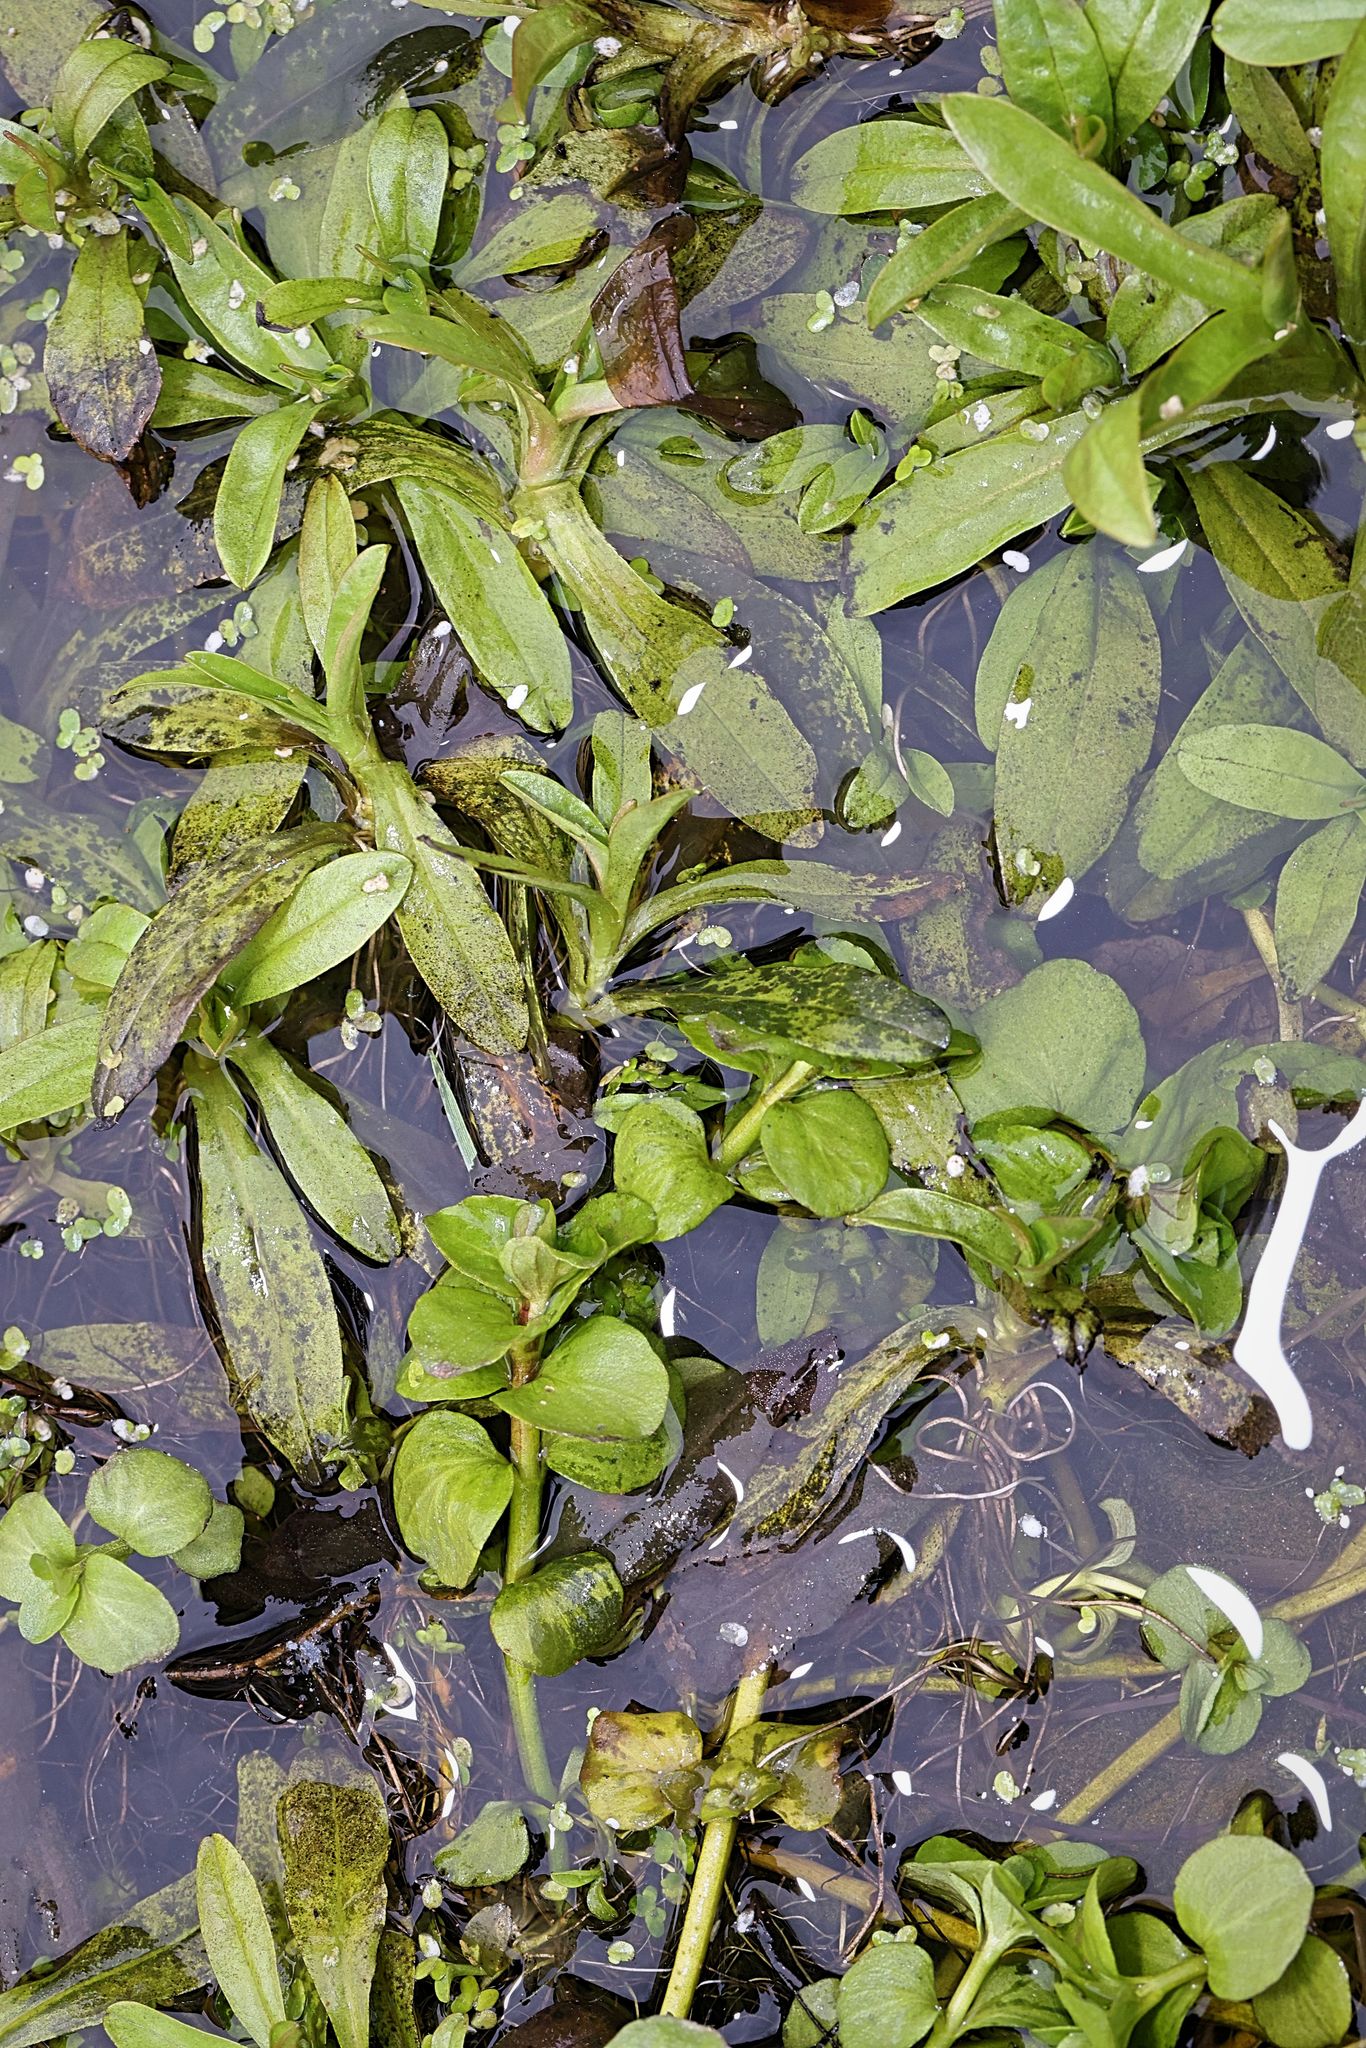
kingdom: Plantae
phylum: Tracheophyta
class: Magnoliopsida
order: Boraginales
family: Boraginaceae
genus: Myosotis
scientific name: Myosotis scorpioides
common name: Water forget-me-not
